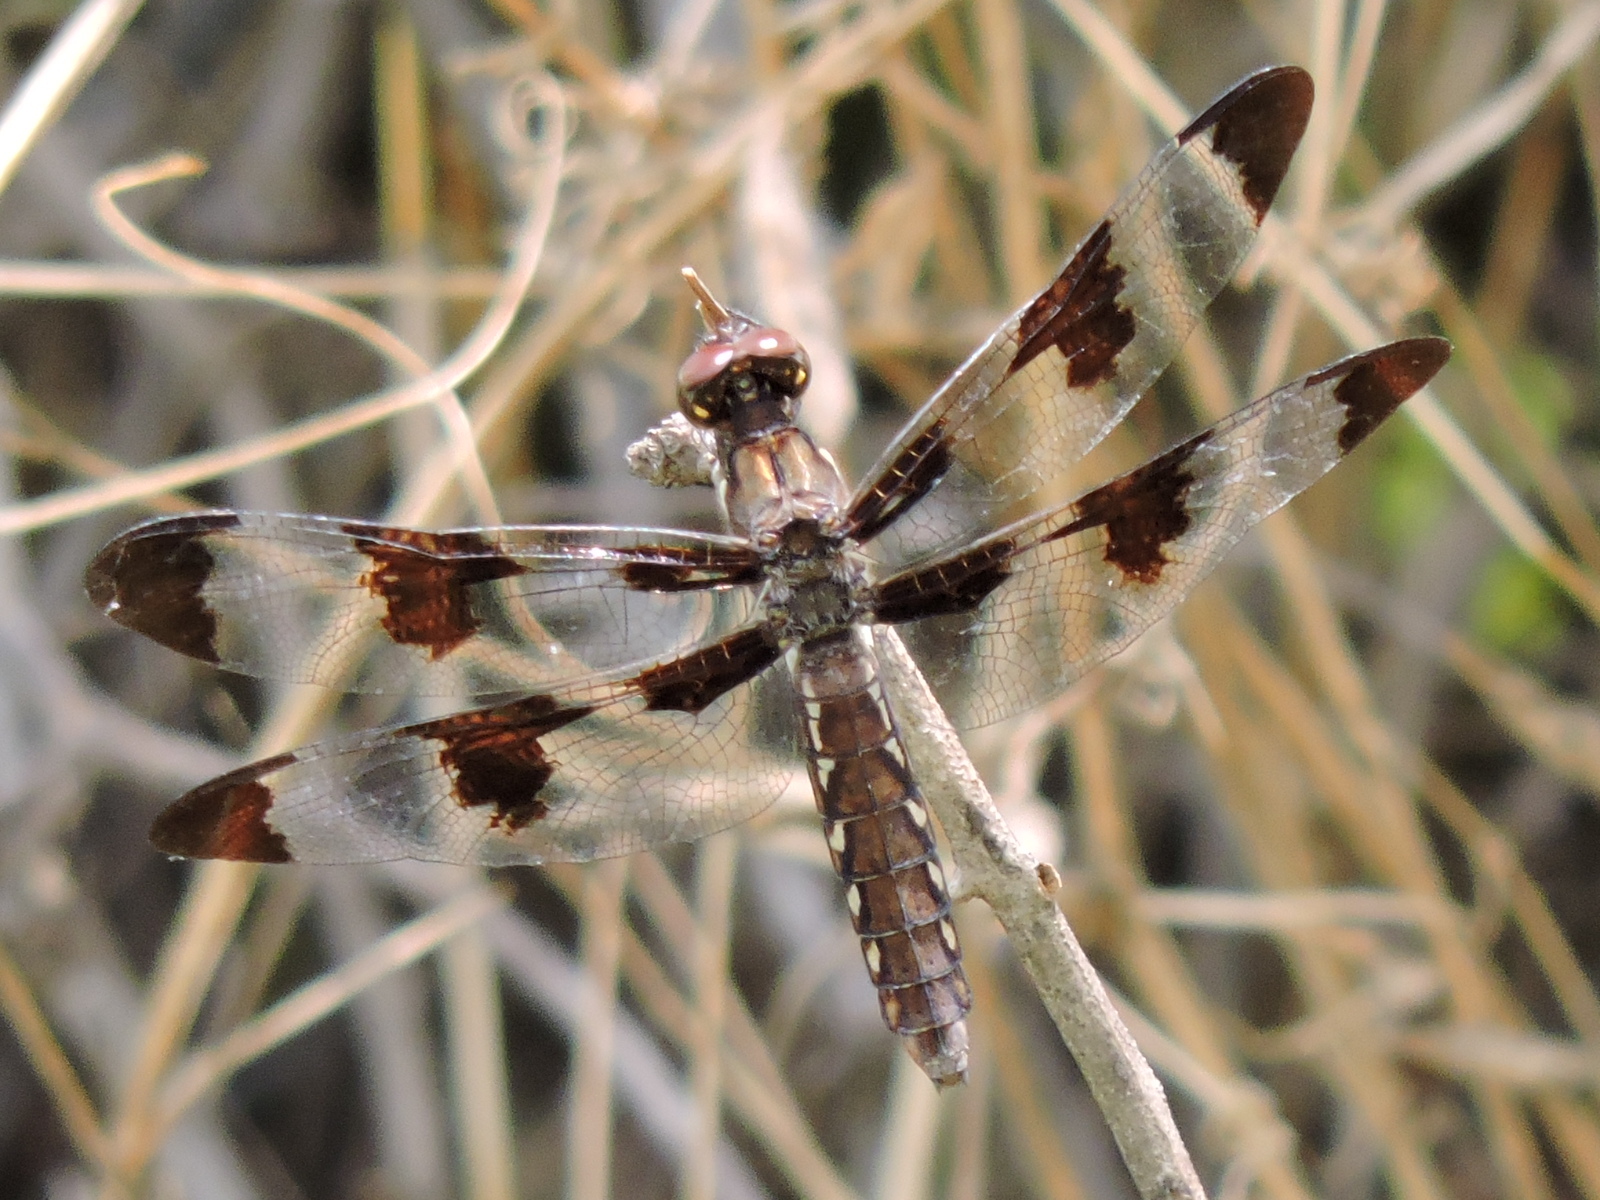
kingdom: Animalia
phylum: Arthropoda
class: Insecta
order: Odonata
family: Libellulidae
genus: Plathemis
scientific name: Plathemis lydia
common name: Common whitetail
